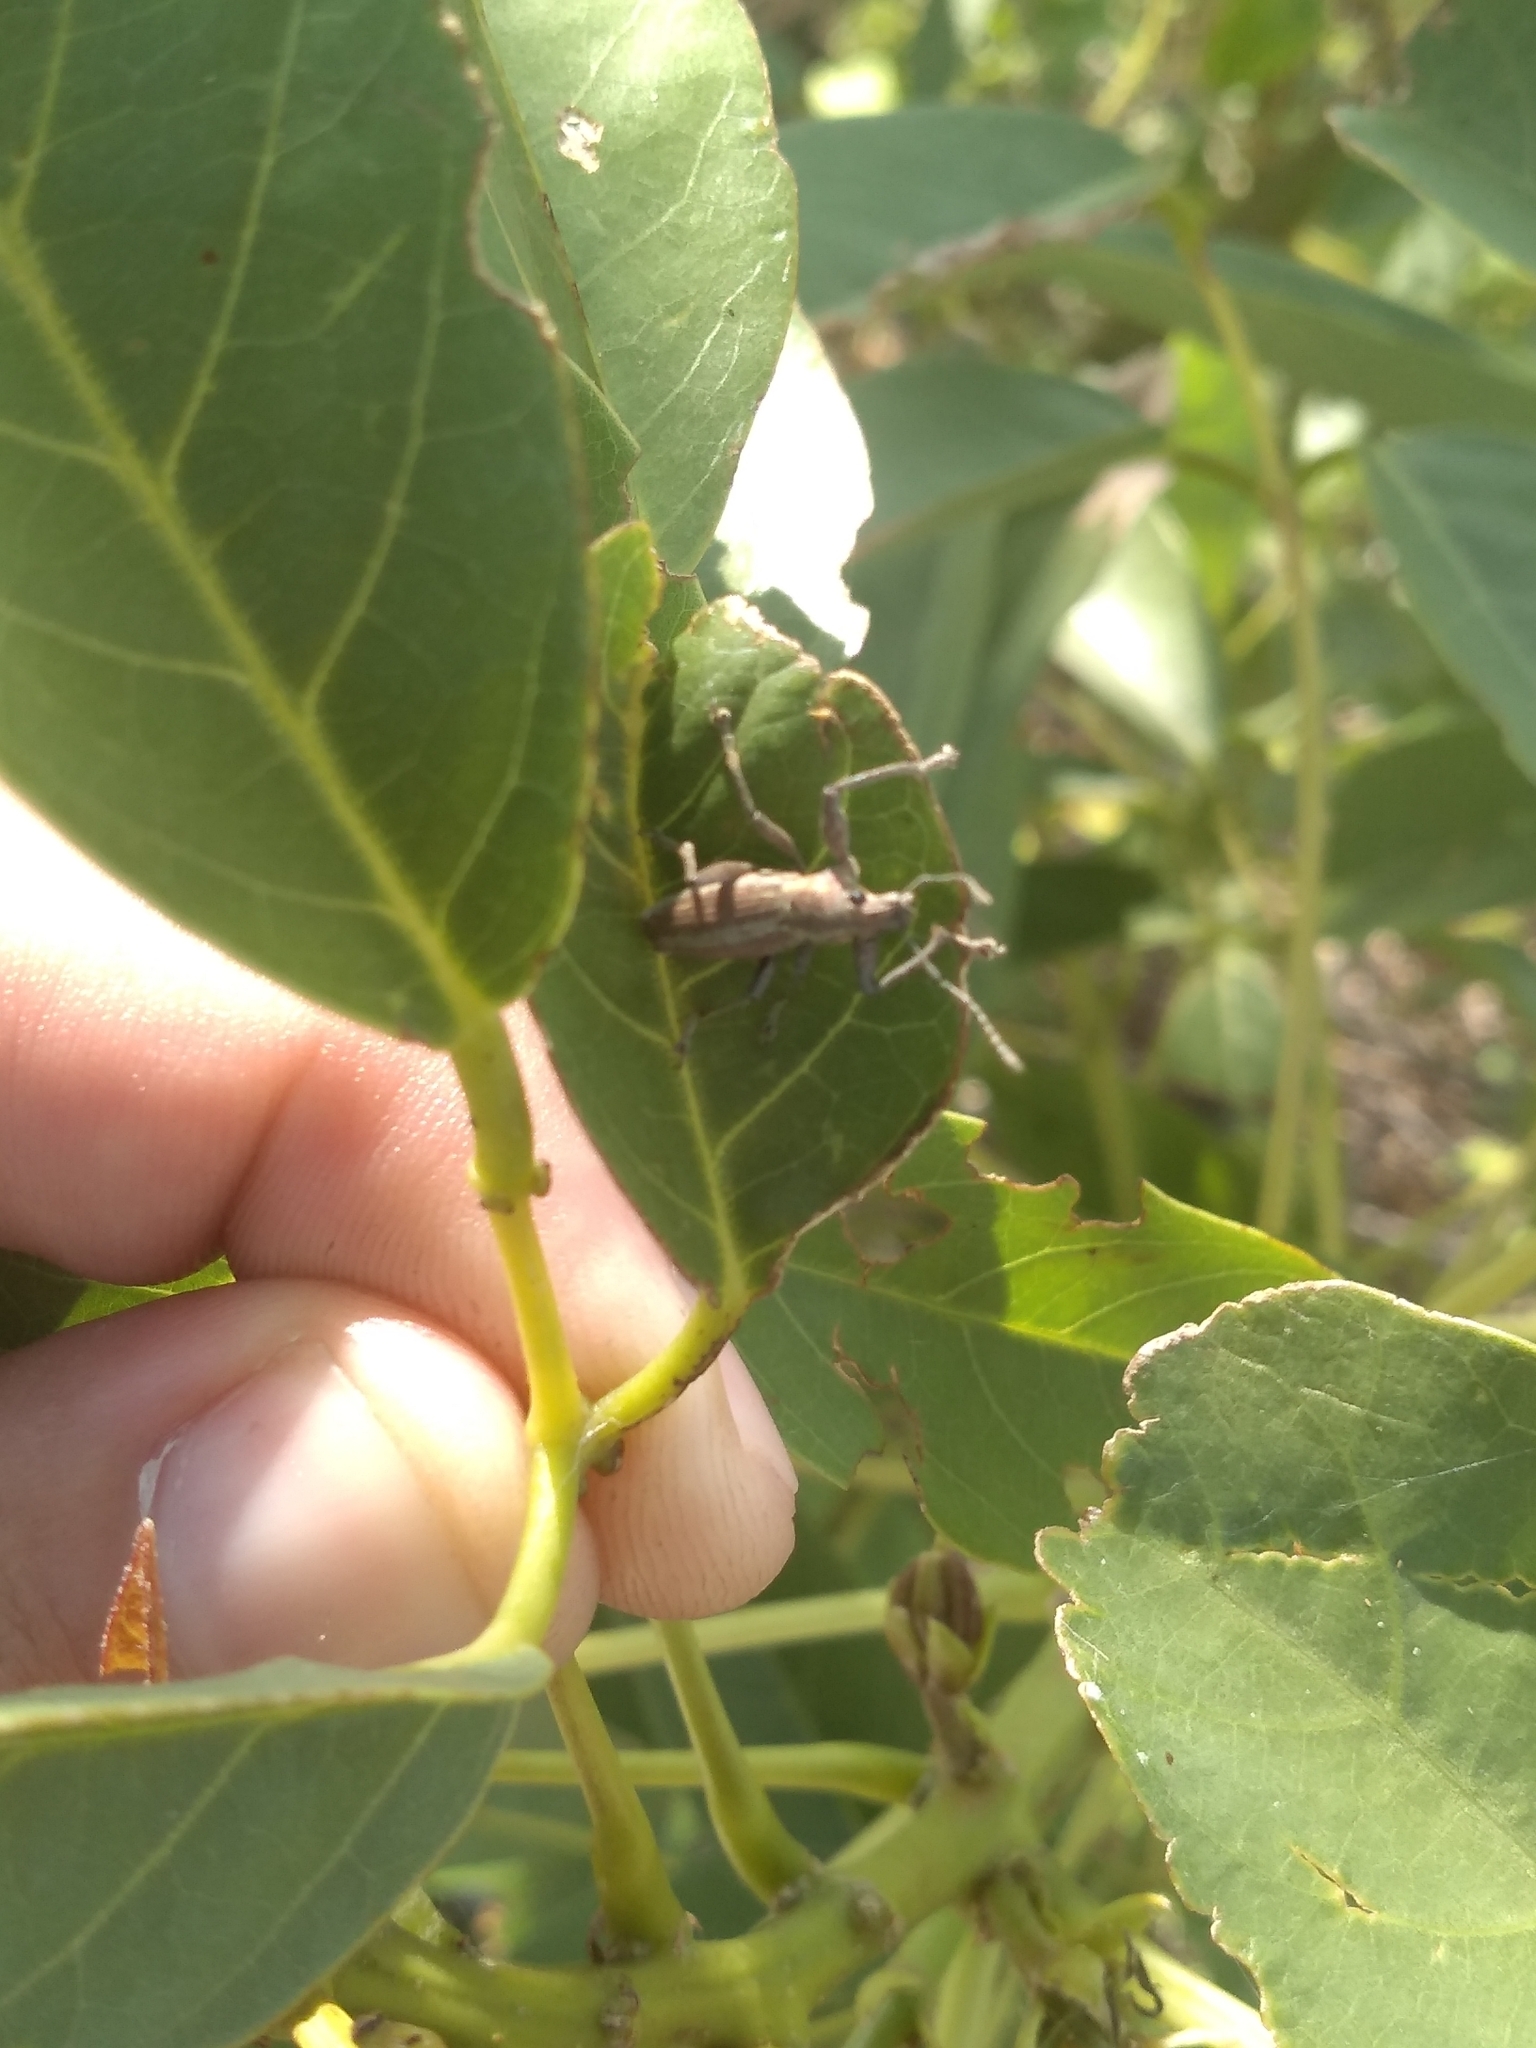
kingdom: Animalia
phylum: Arthropoda
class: Insecta
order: Coleoptera
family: Curculionidae
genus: Naupactus
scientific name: Naupactus xanthographus
